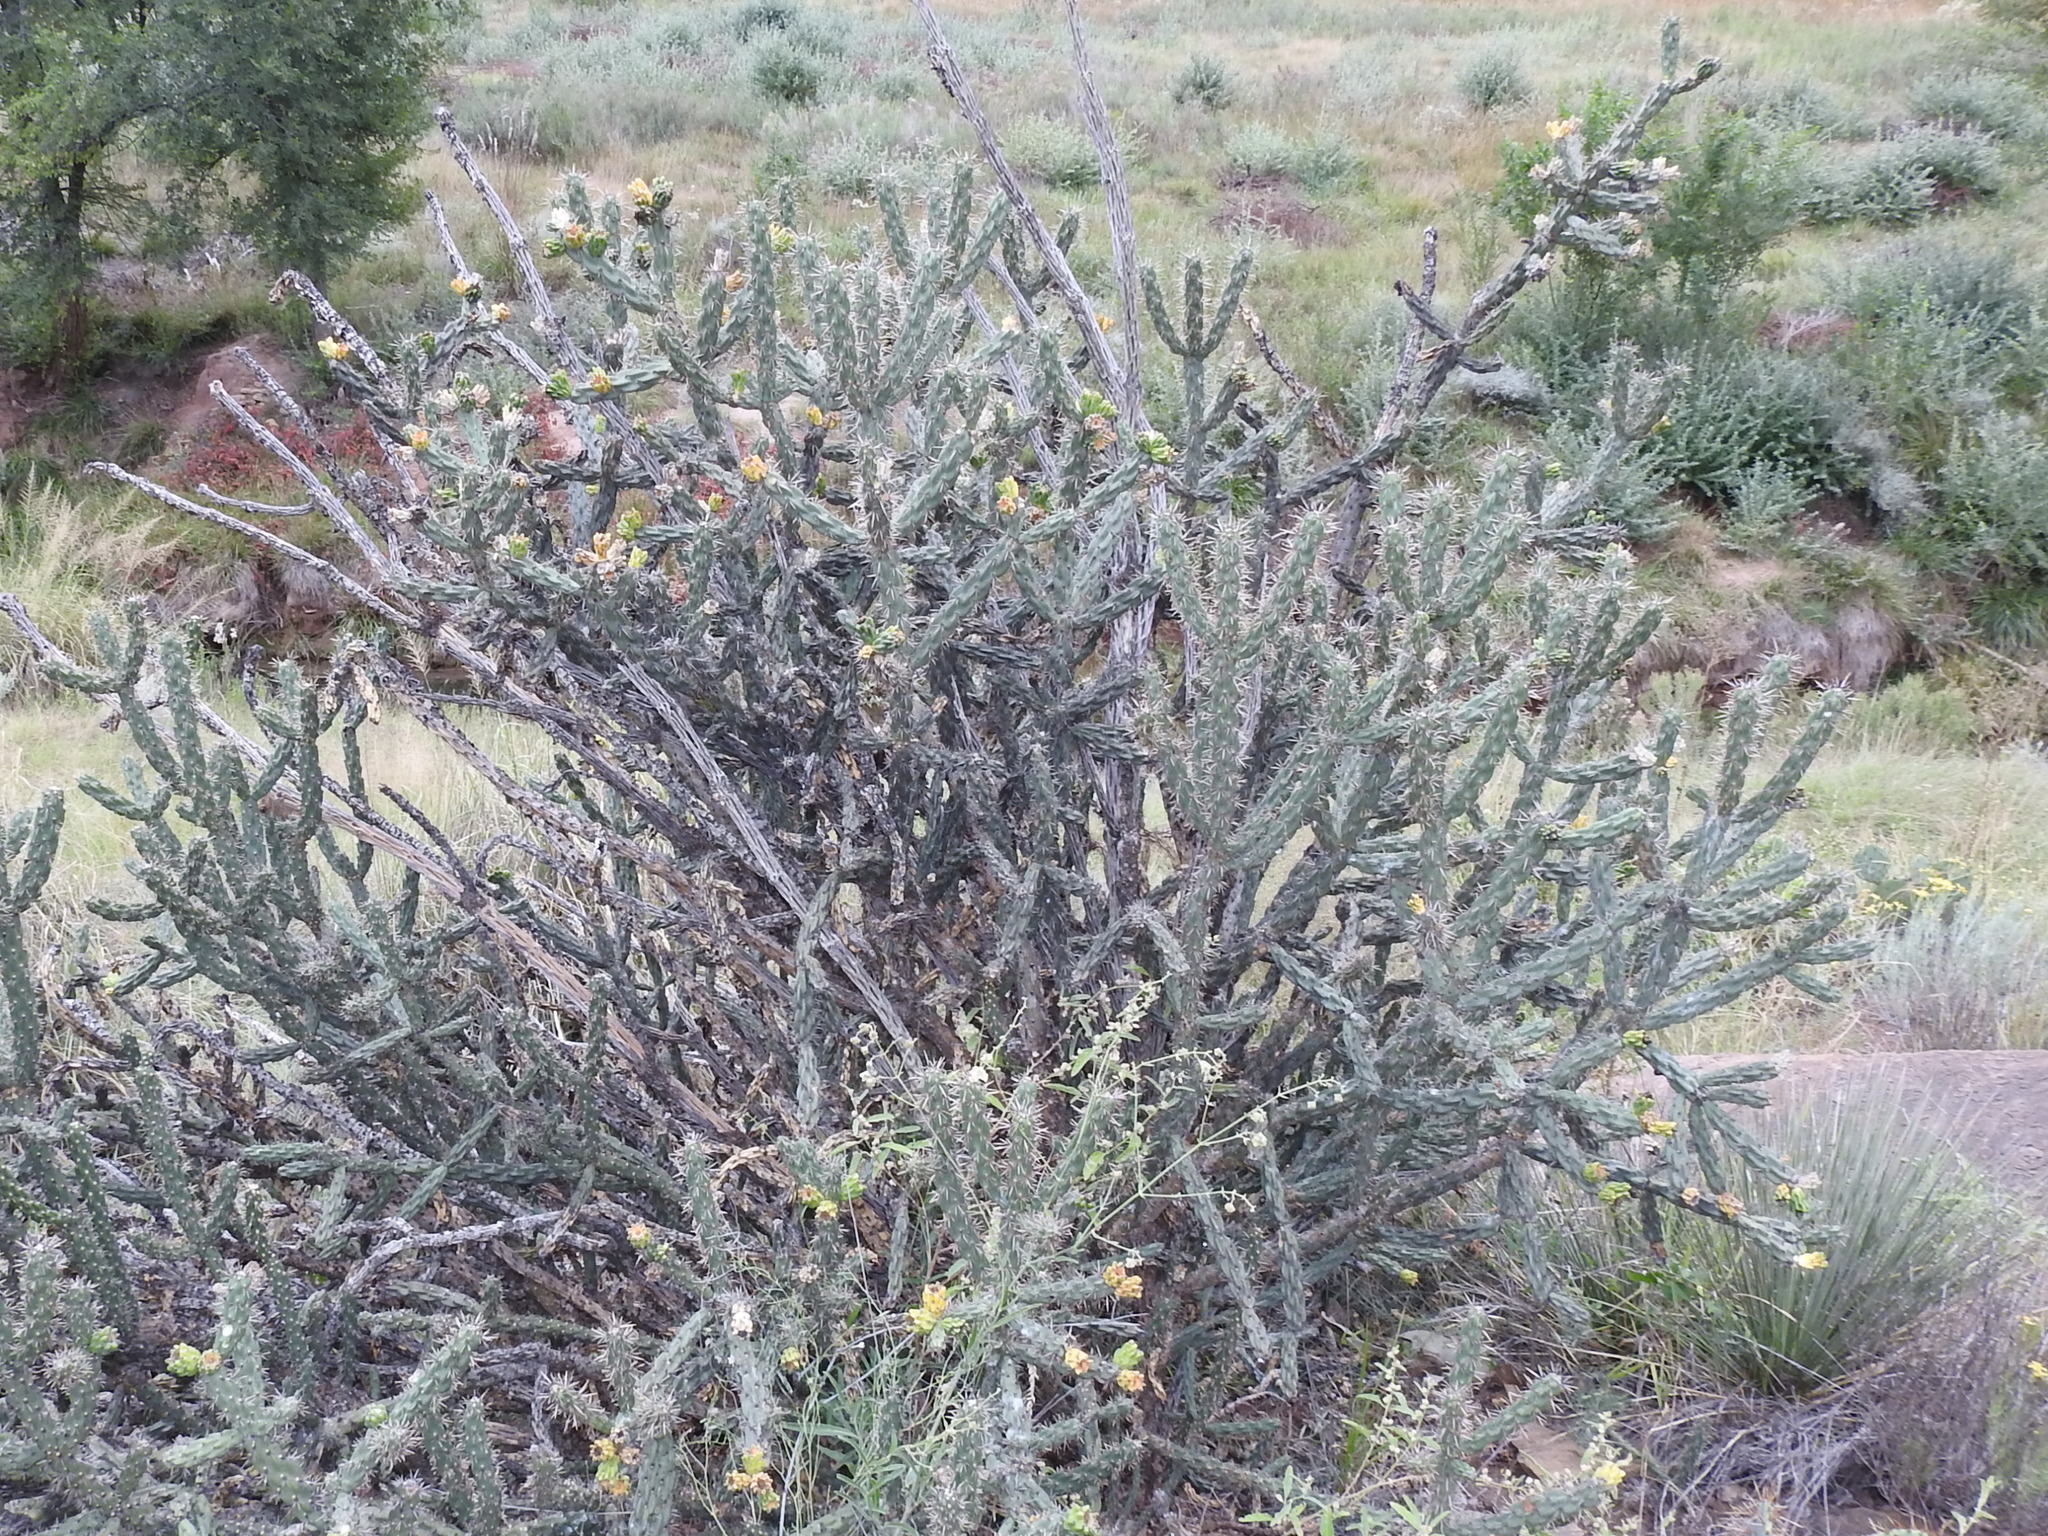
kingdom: Plantae
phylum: Tracheophyta
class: Magnoliopsida
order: Caryophyllales
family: Cactaceae
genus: Cylindropuntia
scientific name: Cylindropuntia imbricata
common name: Candelabrum cactus
